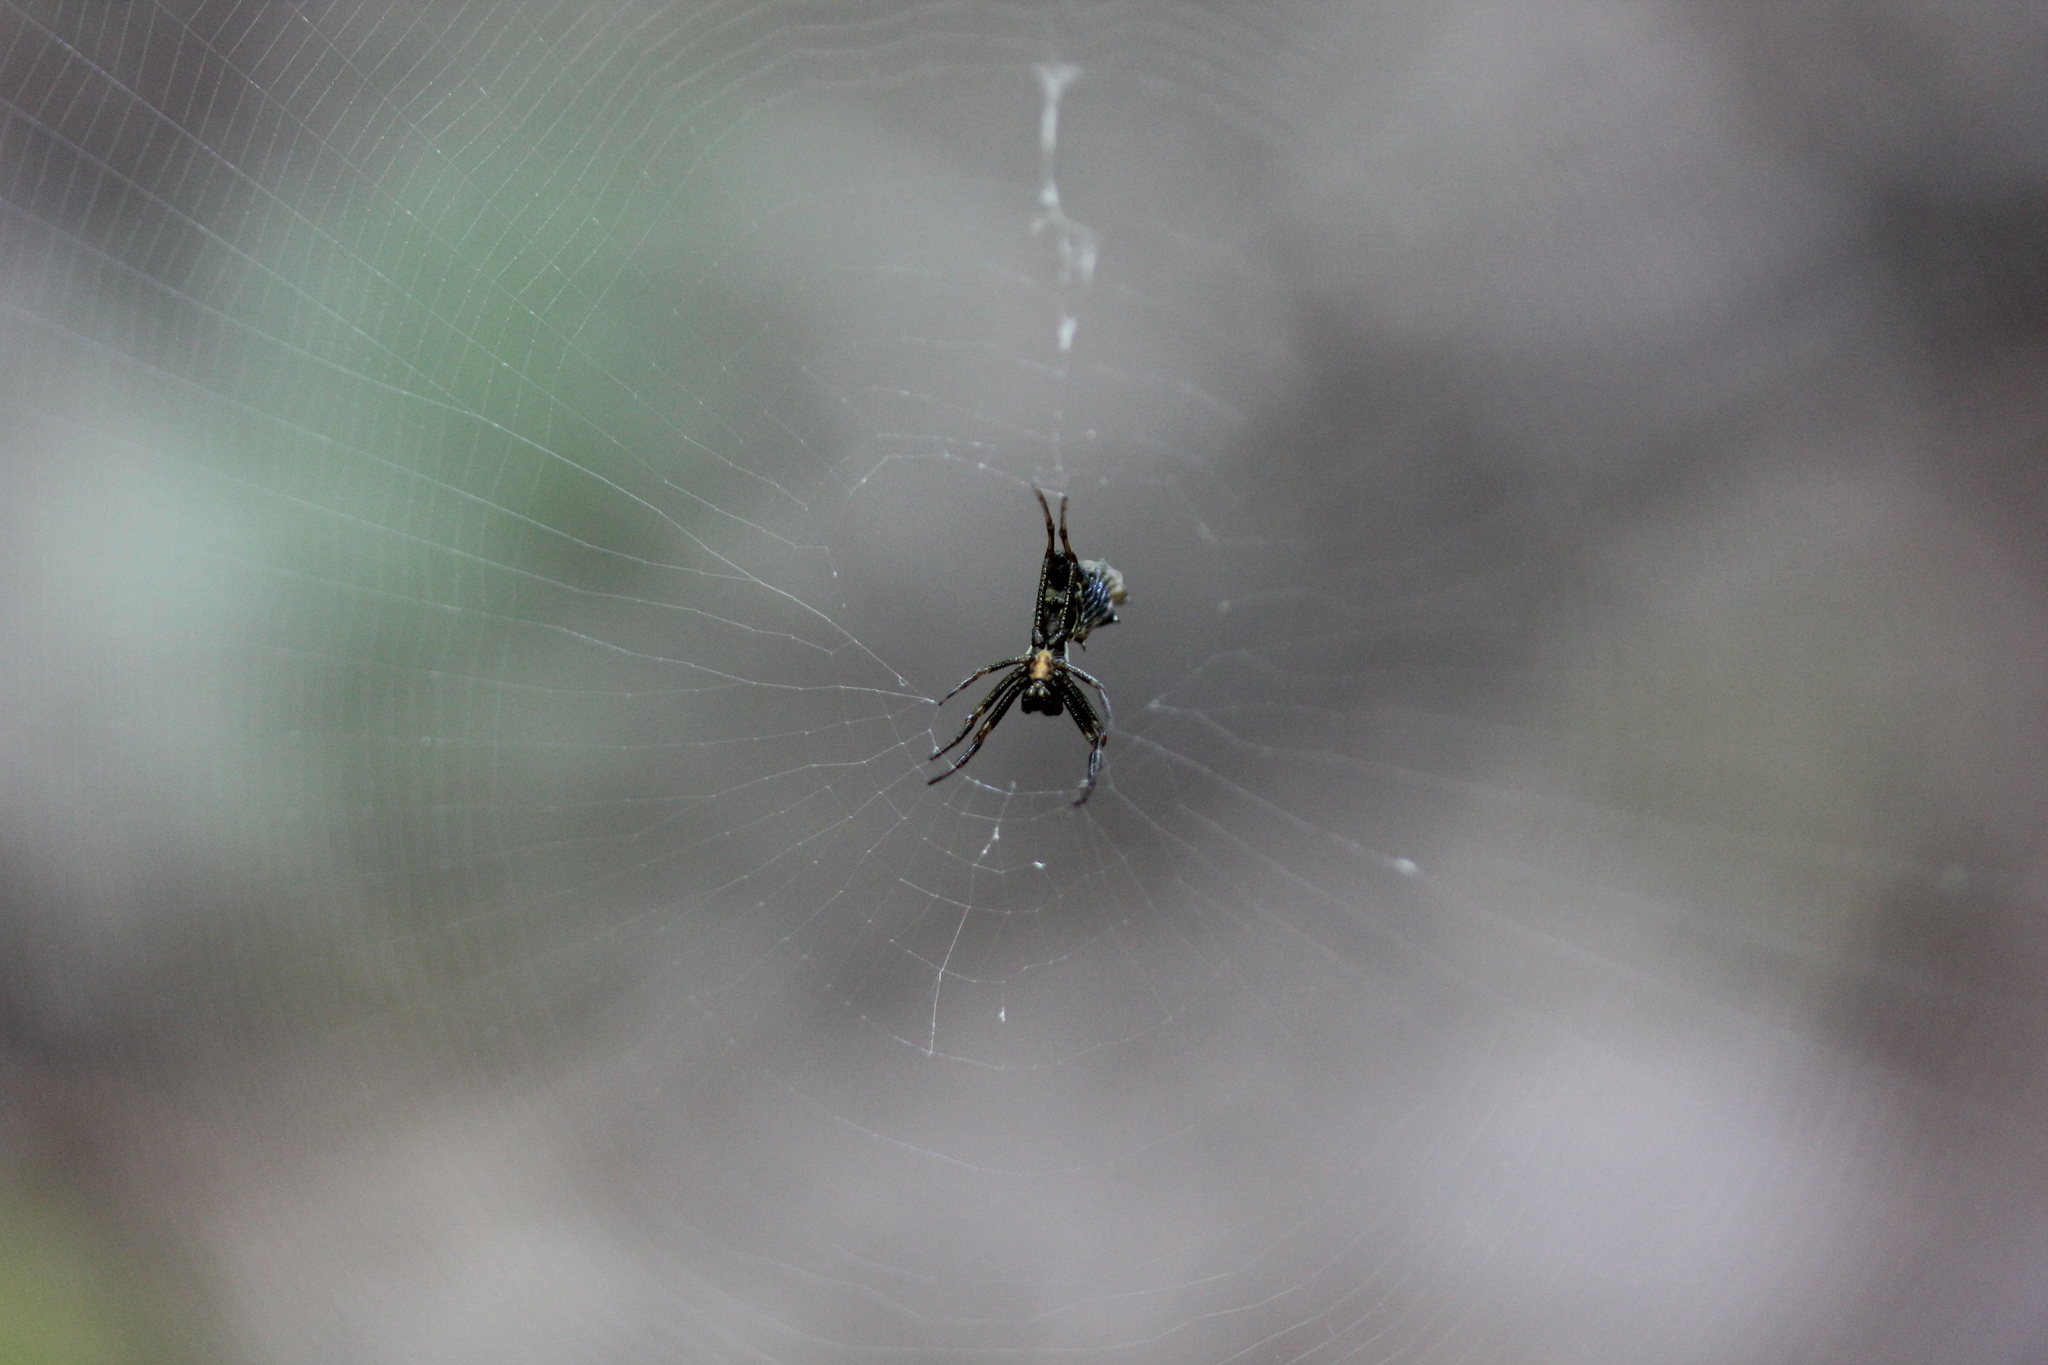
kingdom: Animalia
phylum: Arthropoda
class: Arachnida
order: Araneae
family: Araneidae
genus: Micrathena
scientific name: Micrathena gracilis
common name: Orb weavers
